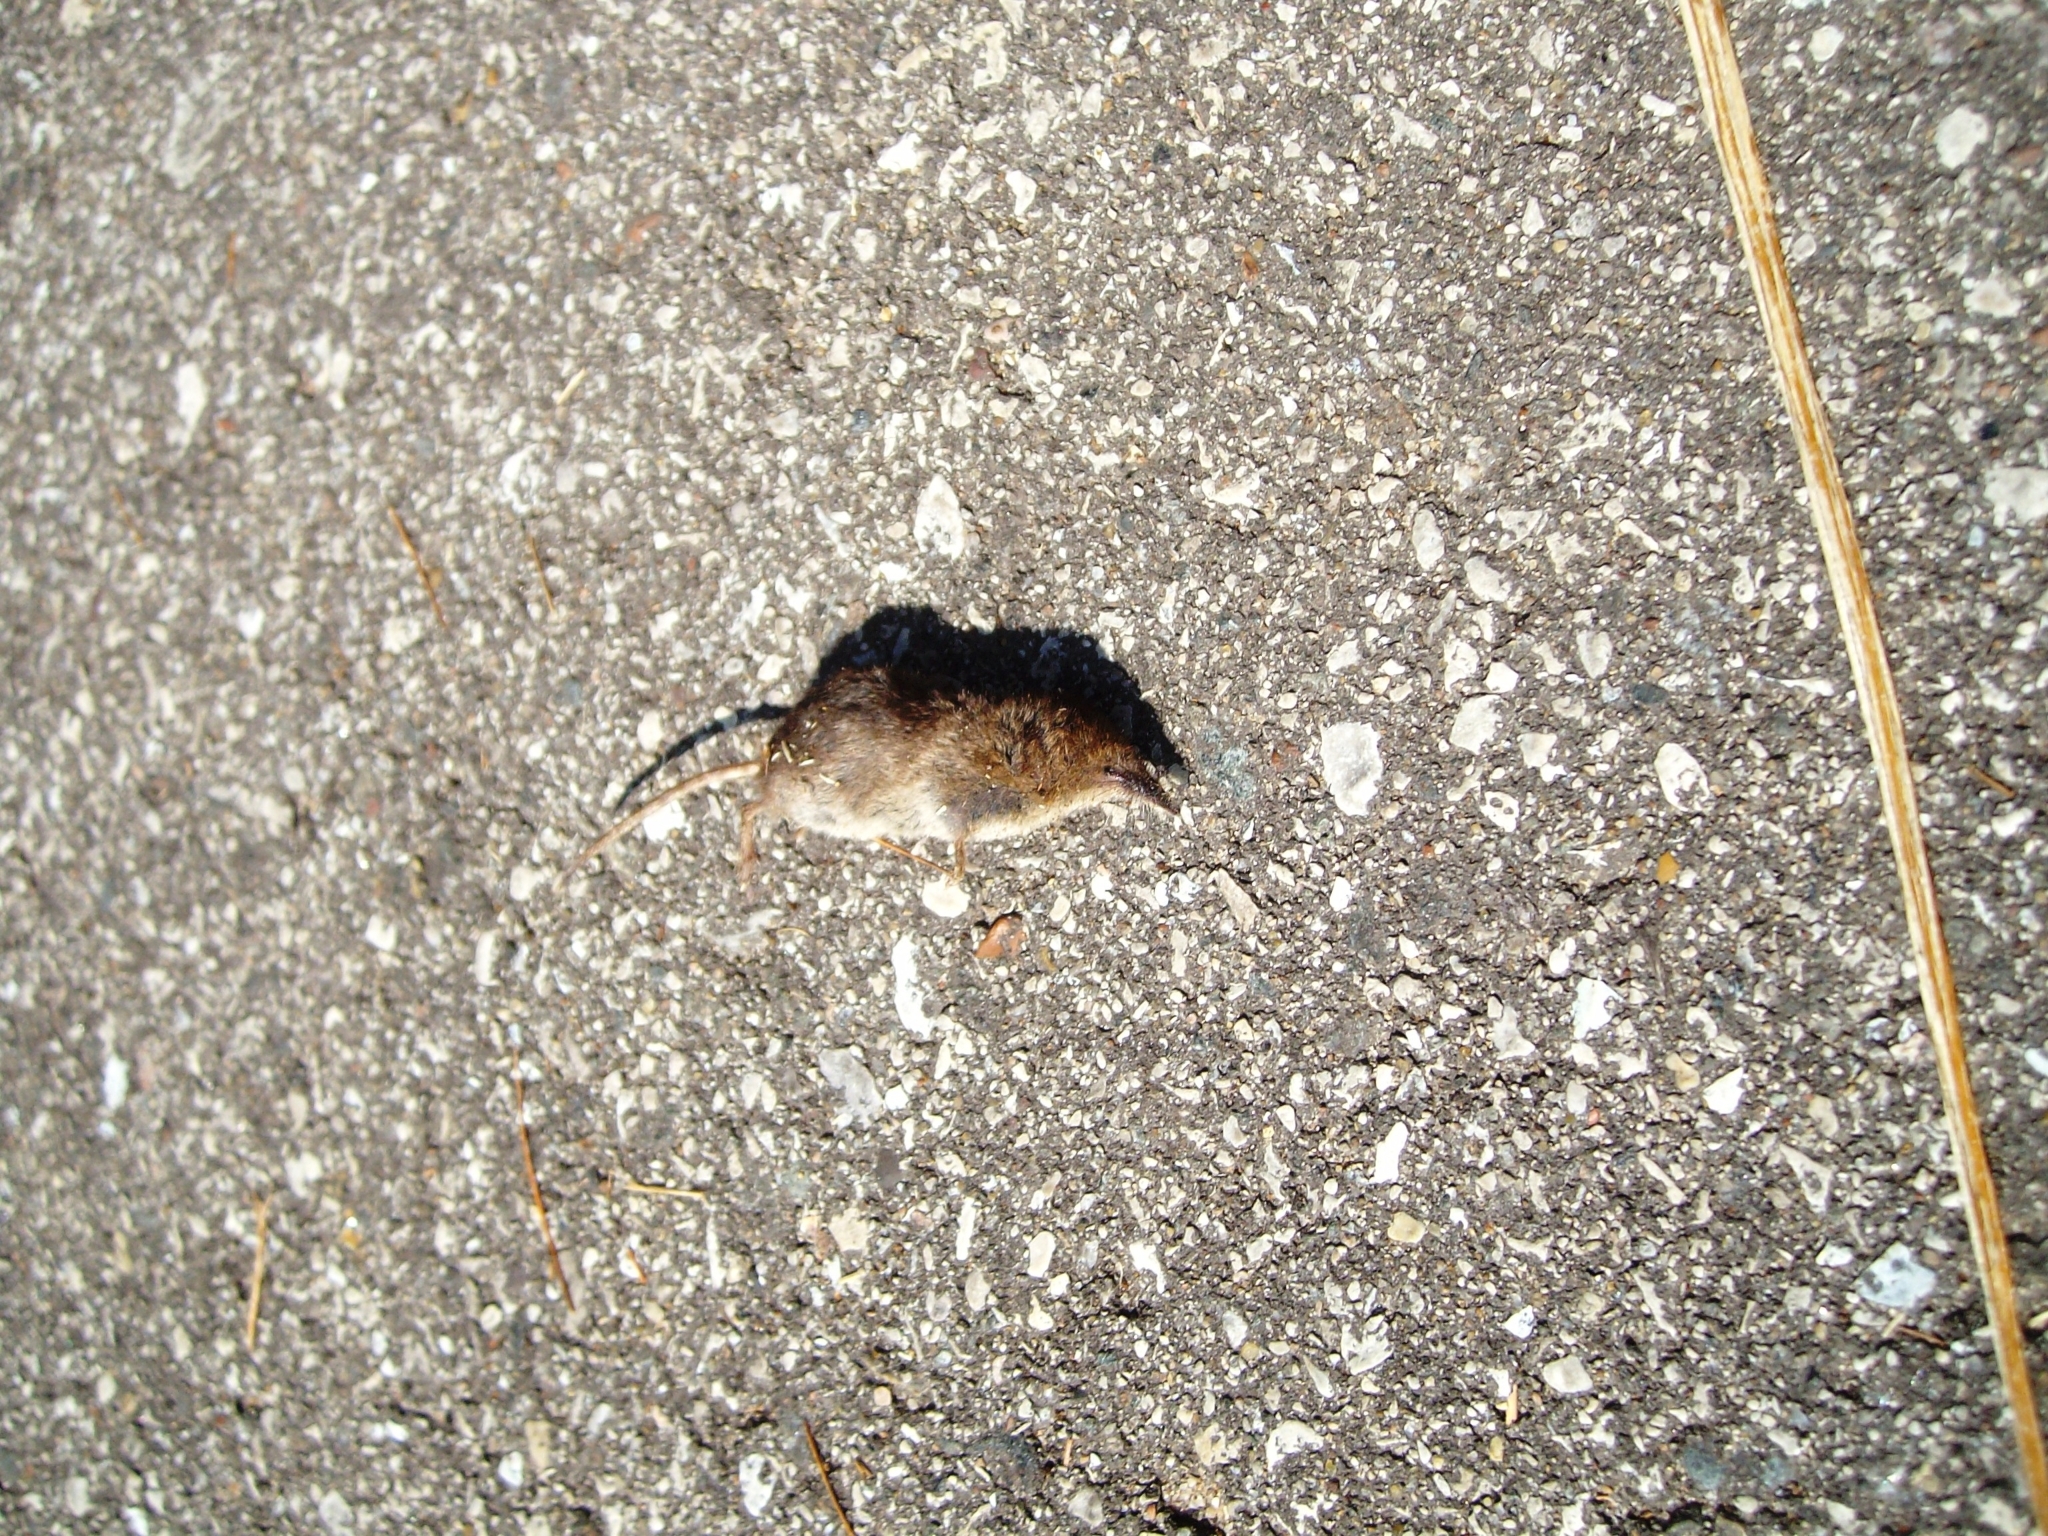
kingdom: Animalia
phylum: Chordata
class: Mammalia
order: Soricomorpha
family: Soricidae
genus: Sorex
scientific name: Sorex hoyi
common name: American pygmy shrew
